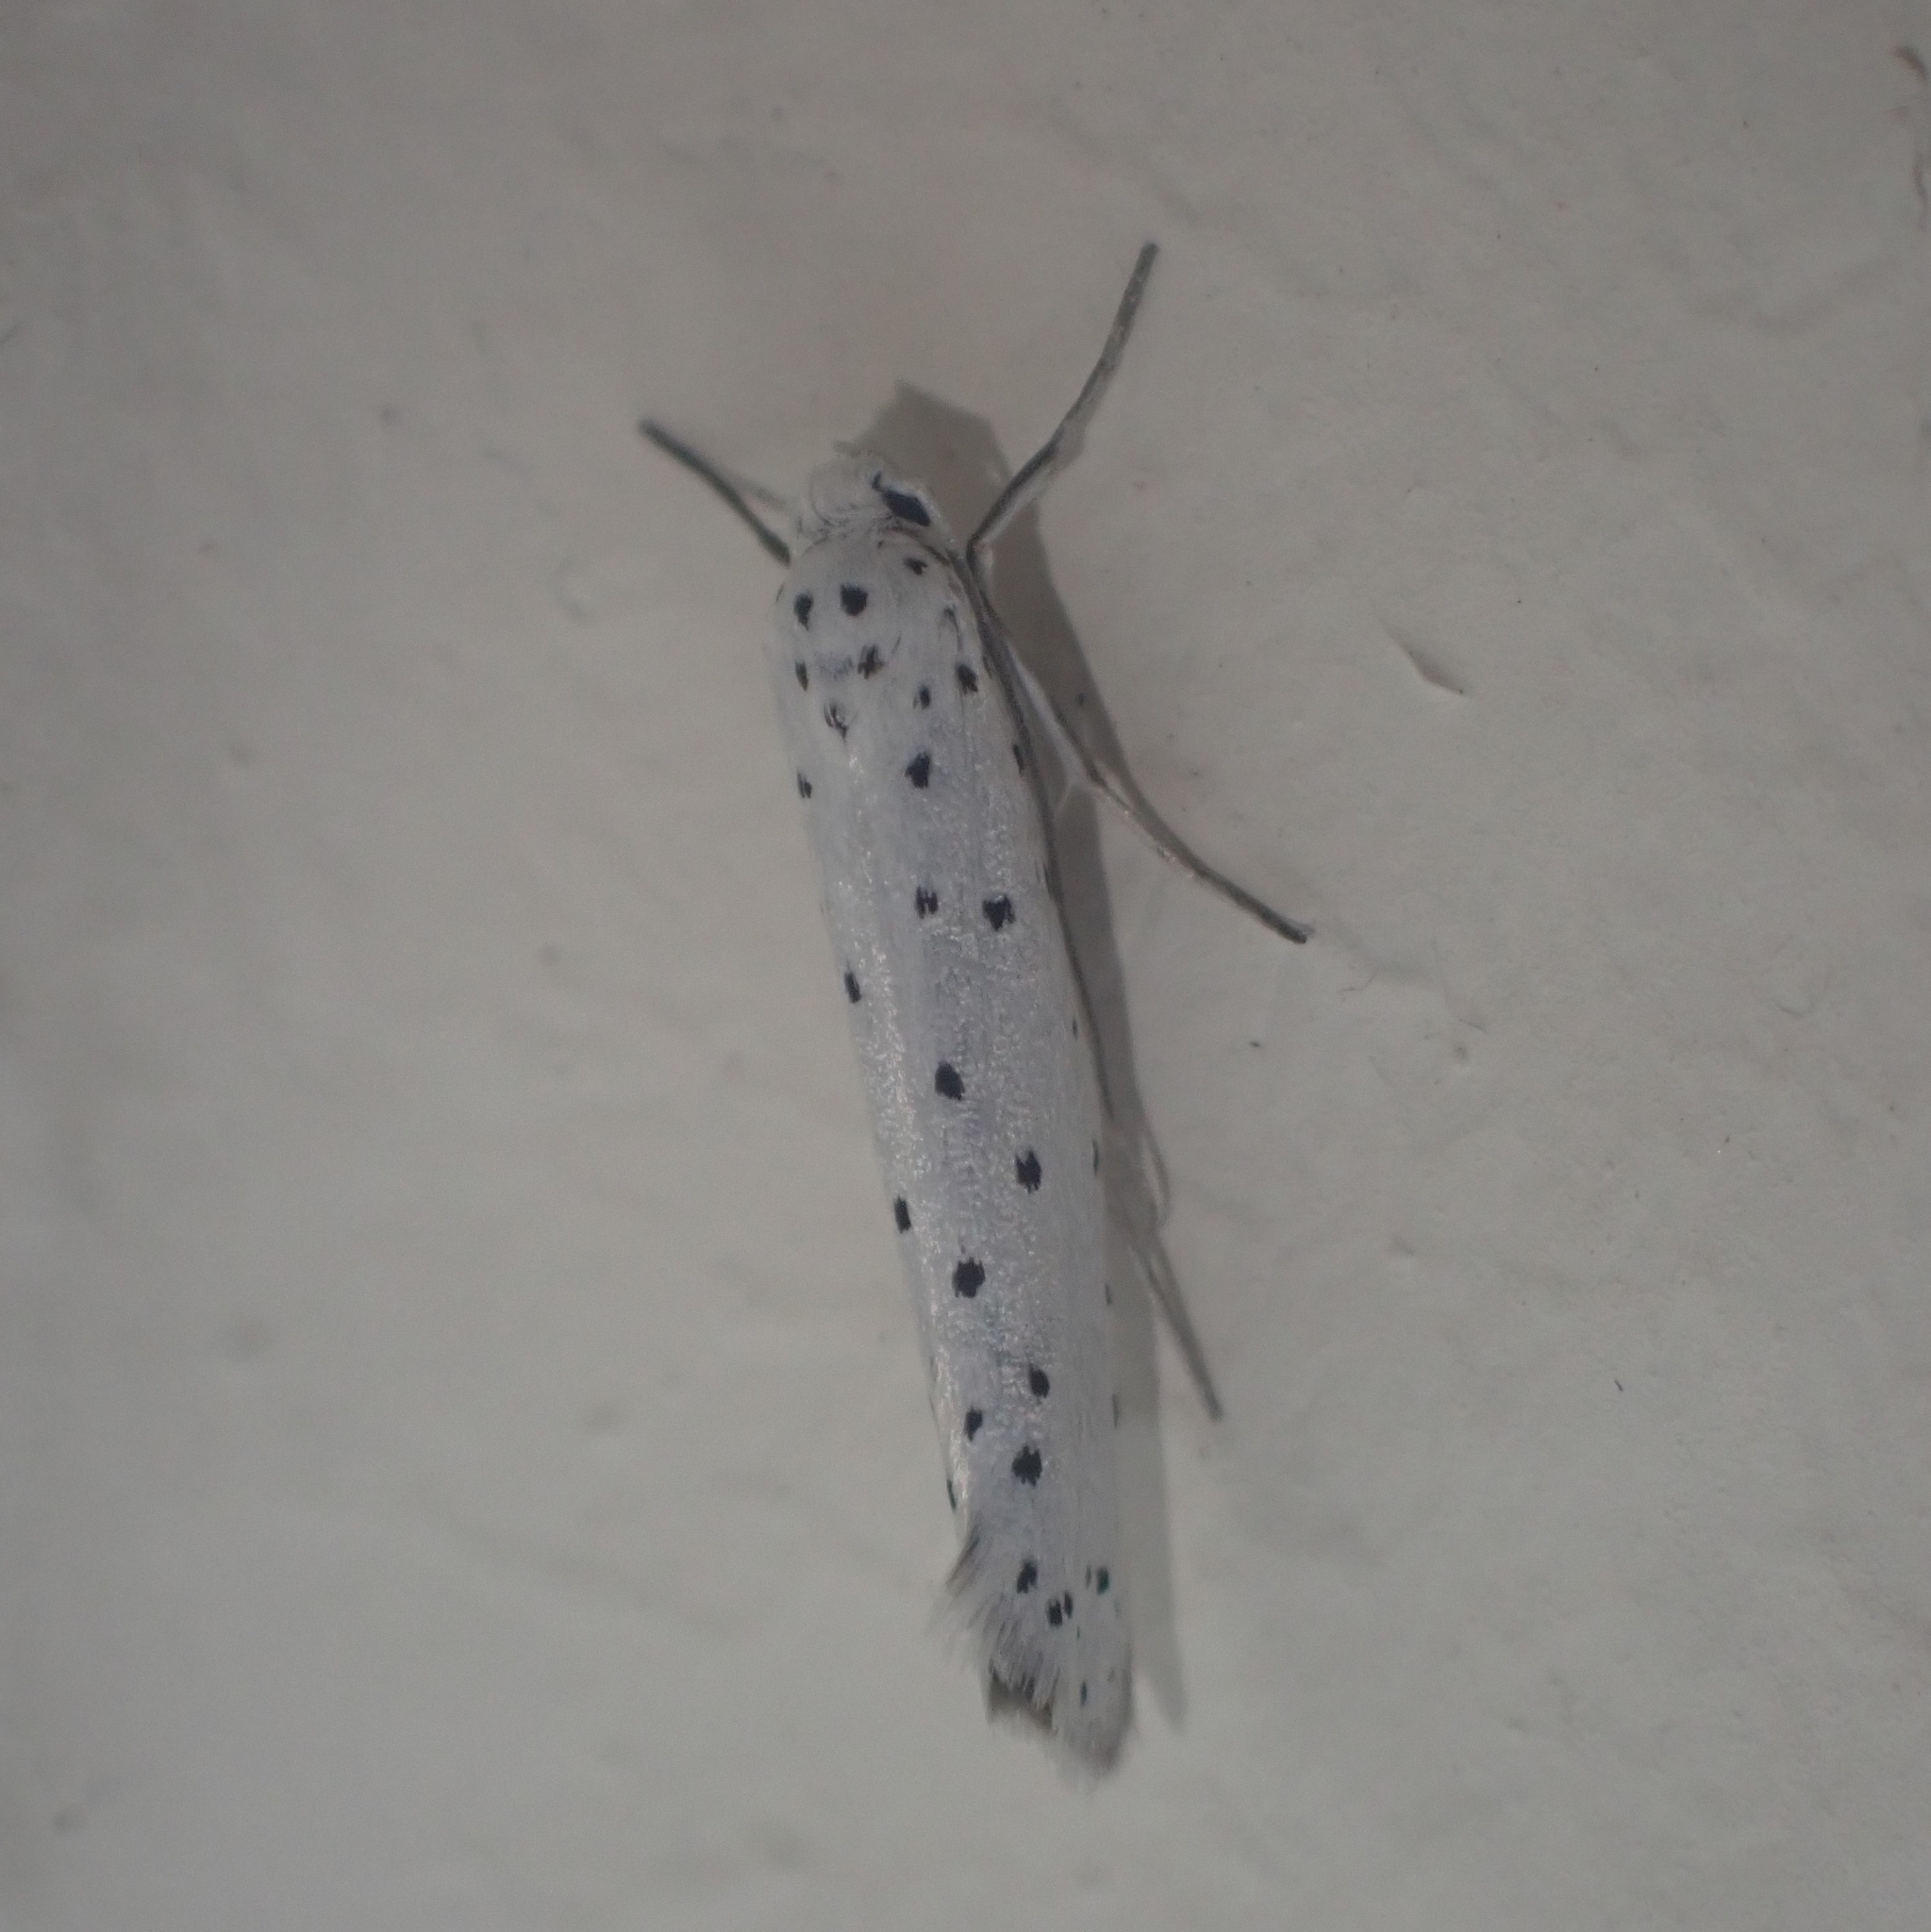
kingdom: Animalia
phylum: Arthropoda
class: Insecta
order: Lepidoptera
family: Yponomeutidae
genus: Yponomeuta
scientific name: Yponomeuta
